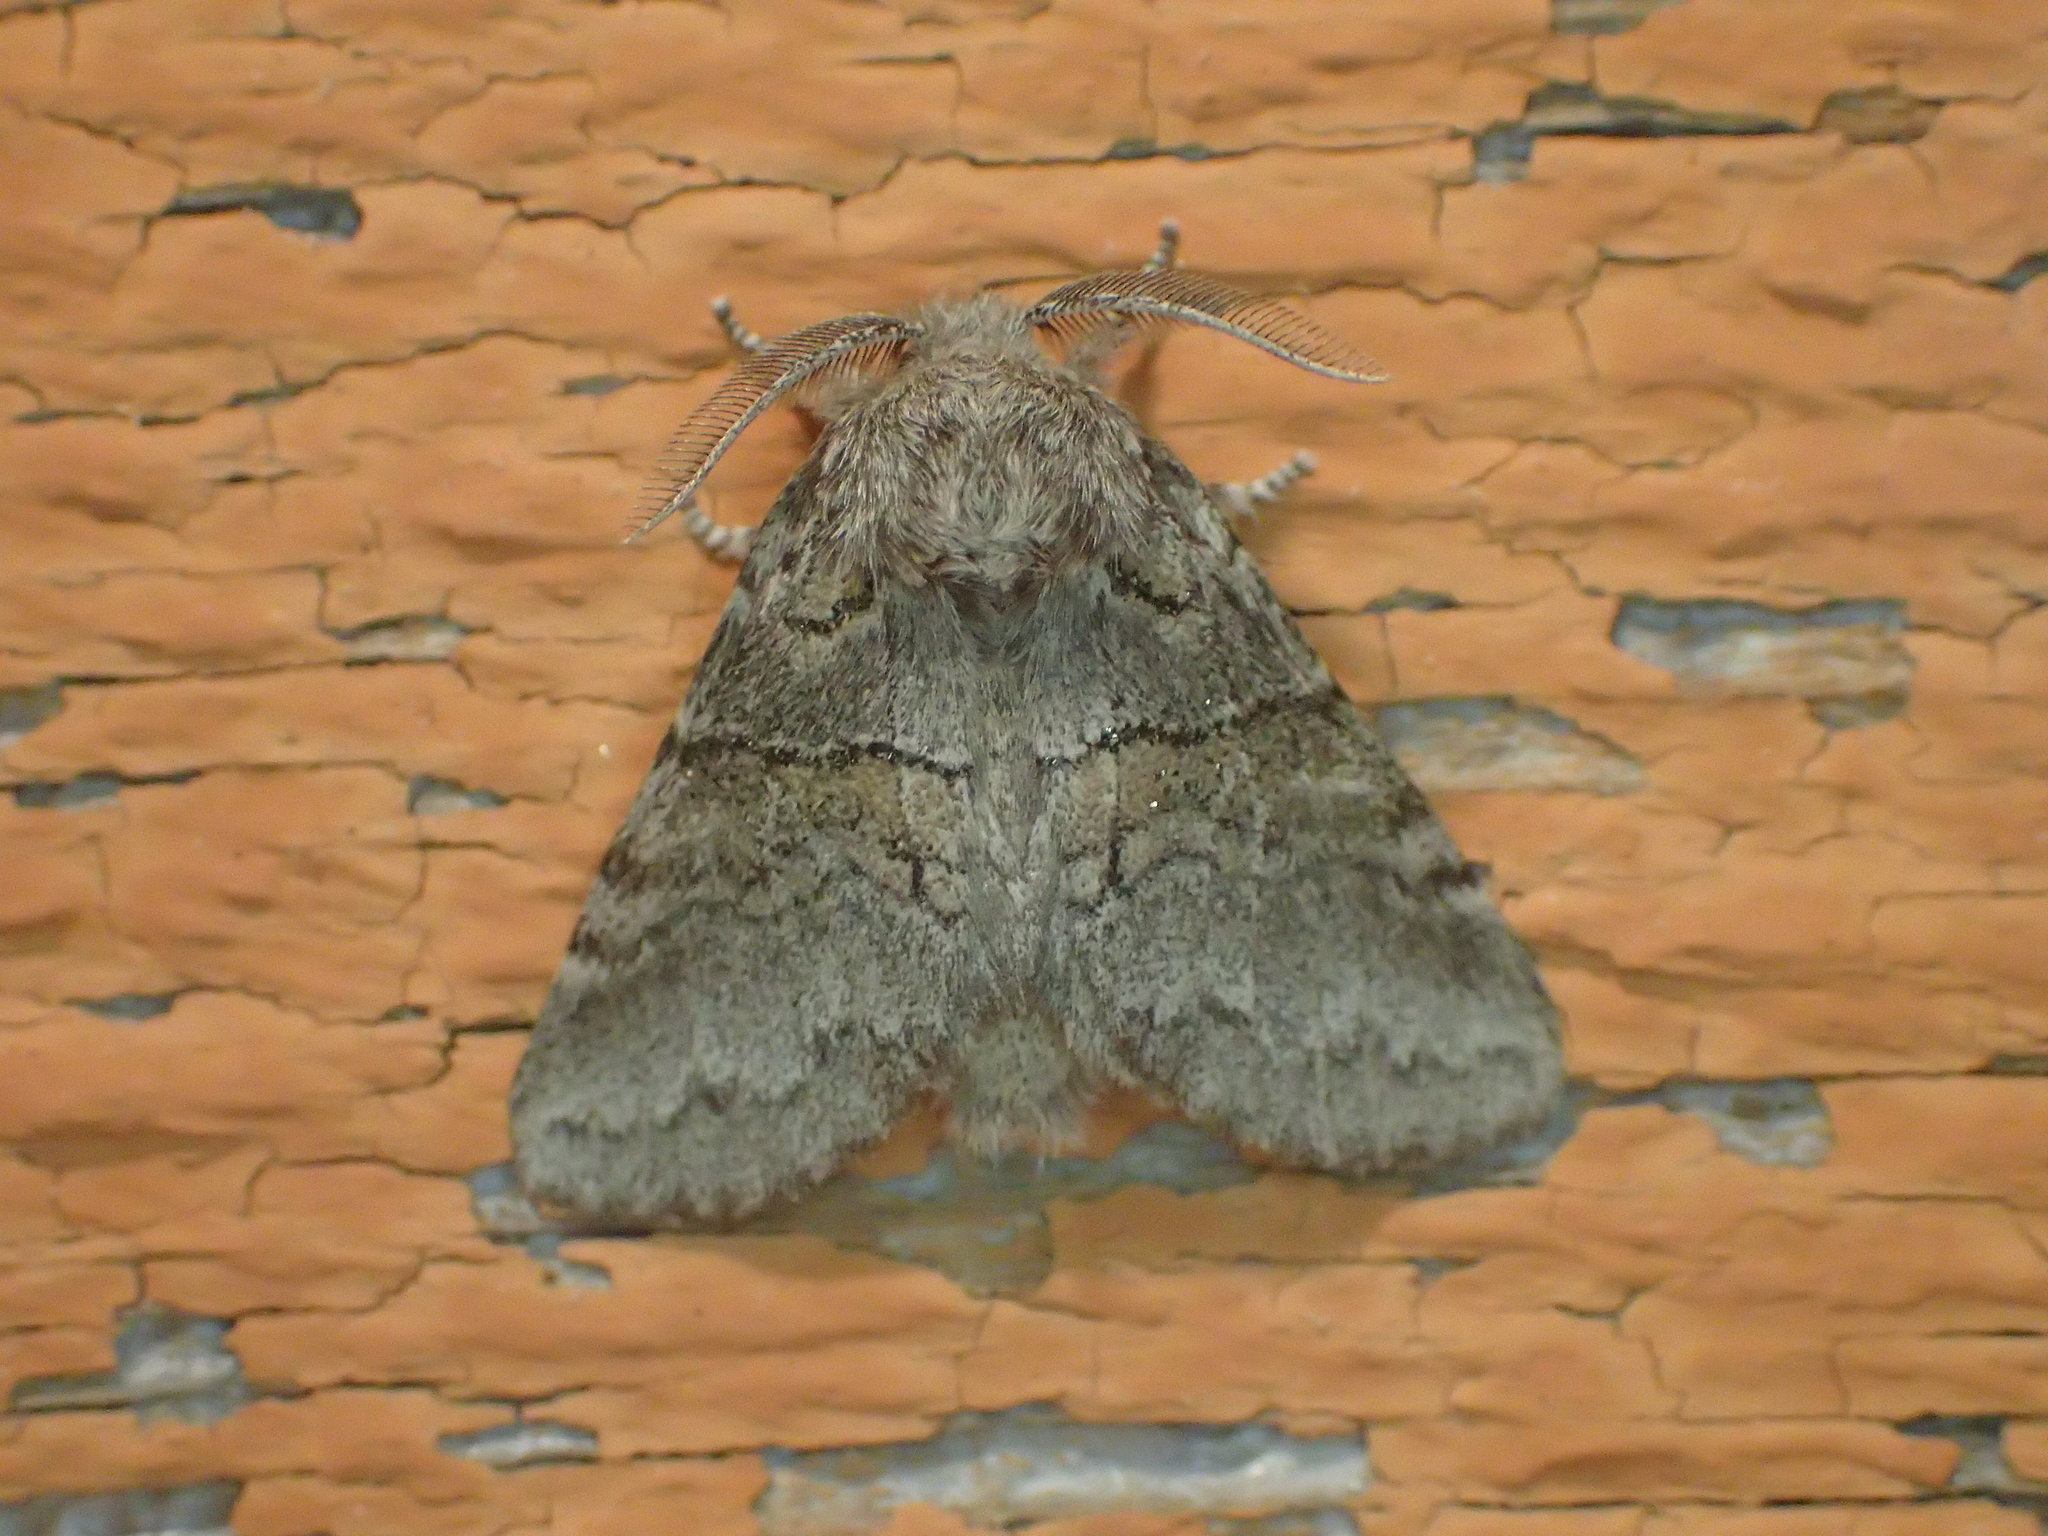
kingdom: Animalia
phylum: Arthropoda
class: Insecta
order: Lepidoptera
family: Notodontidae
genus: Gluphisia
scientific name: Gluphisia septentrionis
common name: Common gluphisia
